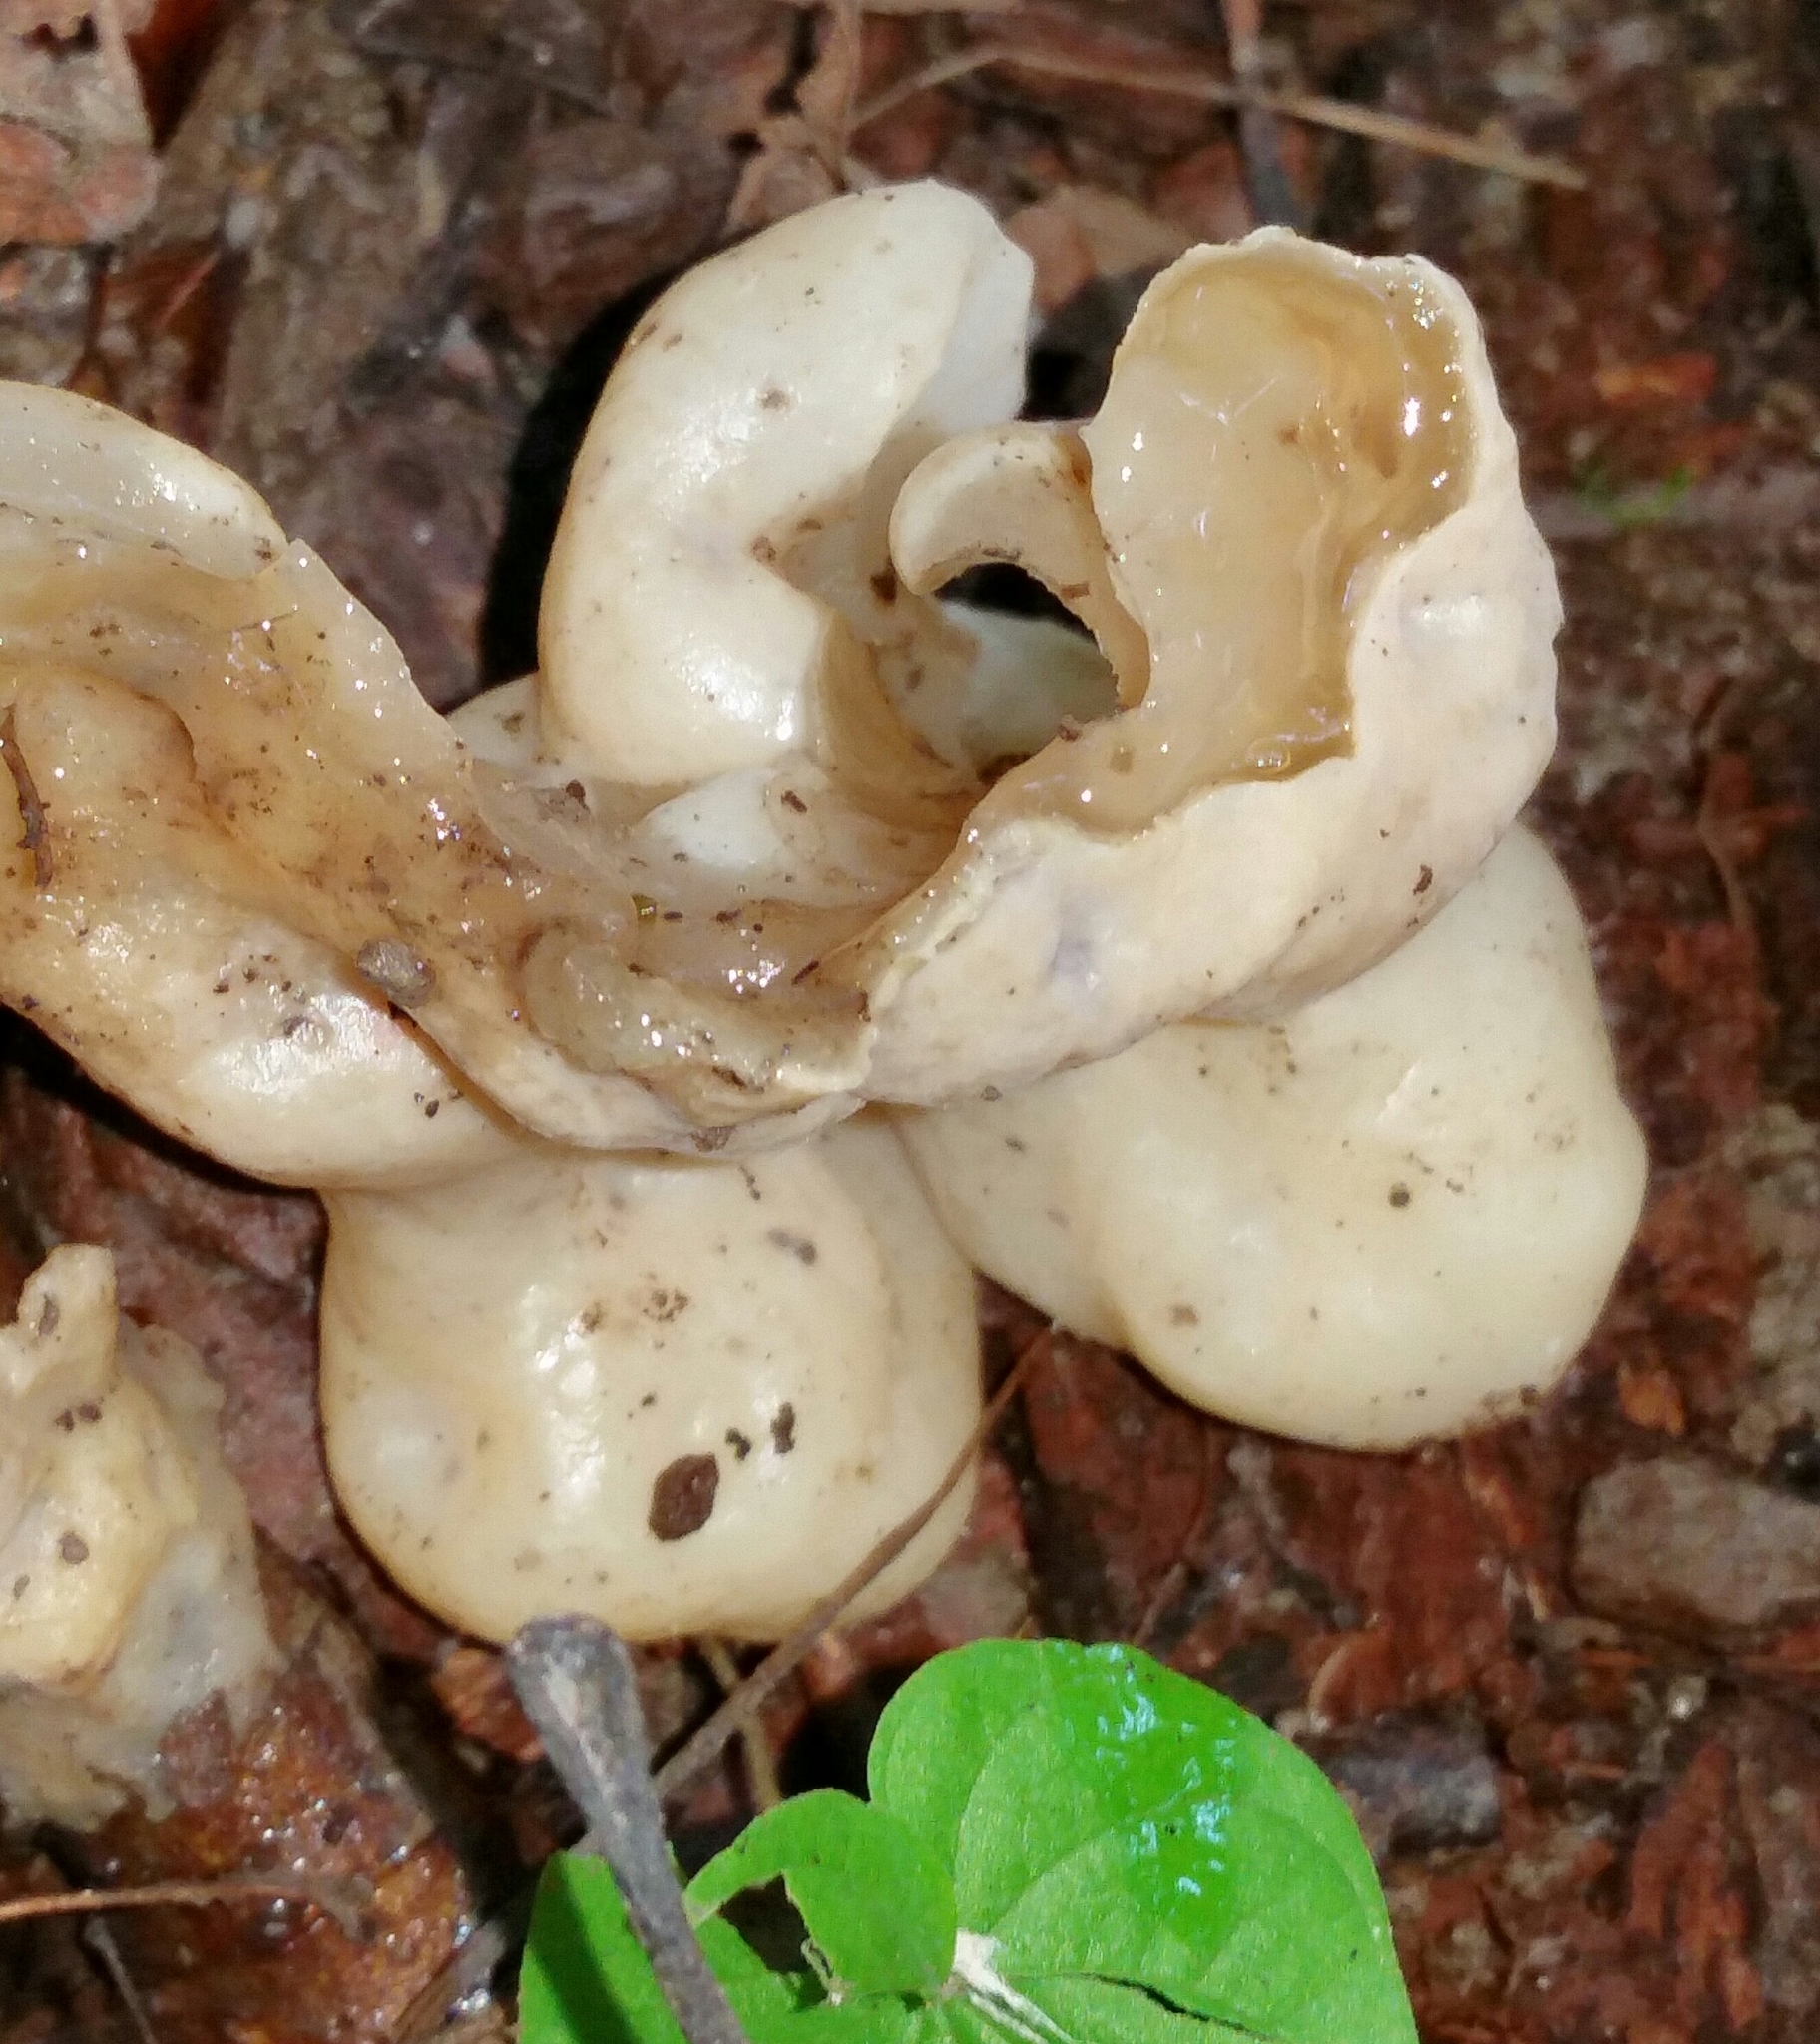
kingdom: Fungi
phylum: Basidiomycota
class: Agaricomycetes
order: Sebacinales
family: Sebacinaceae
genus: Helvellosebacina
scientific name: Helvellosebacina concrescens
